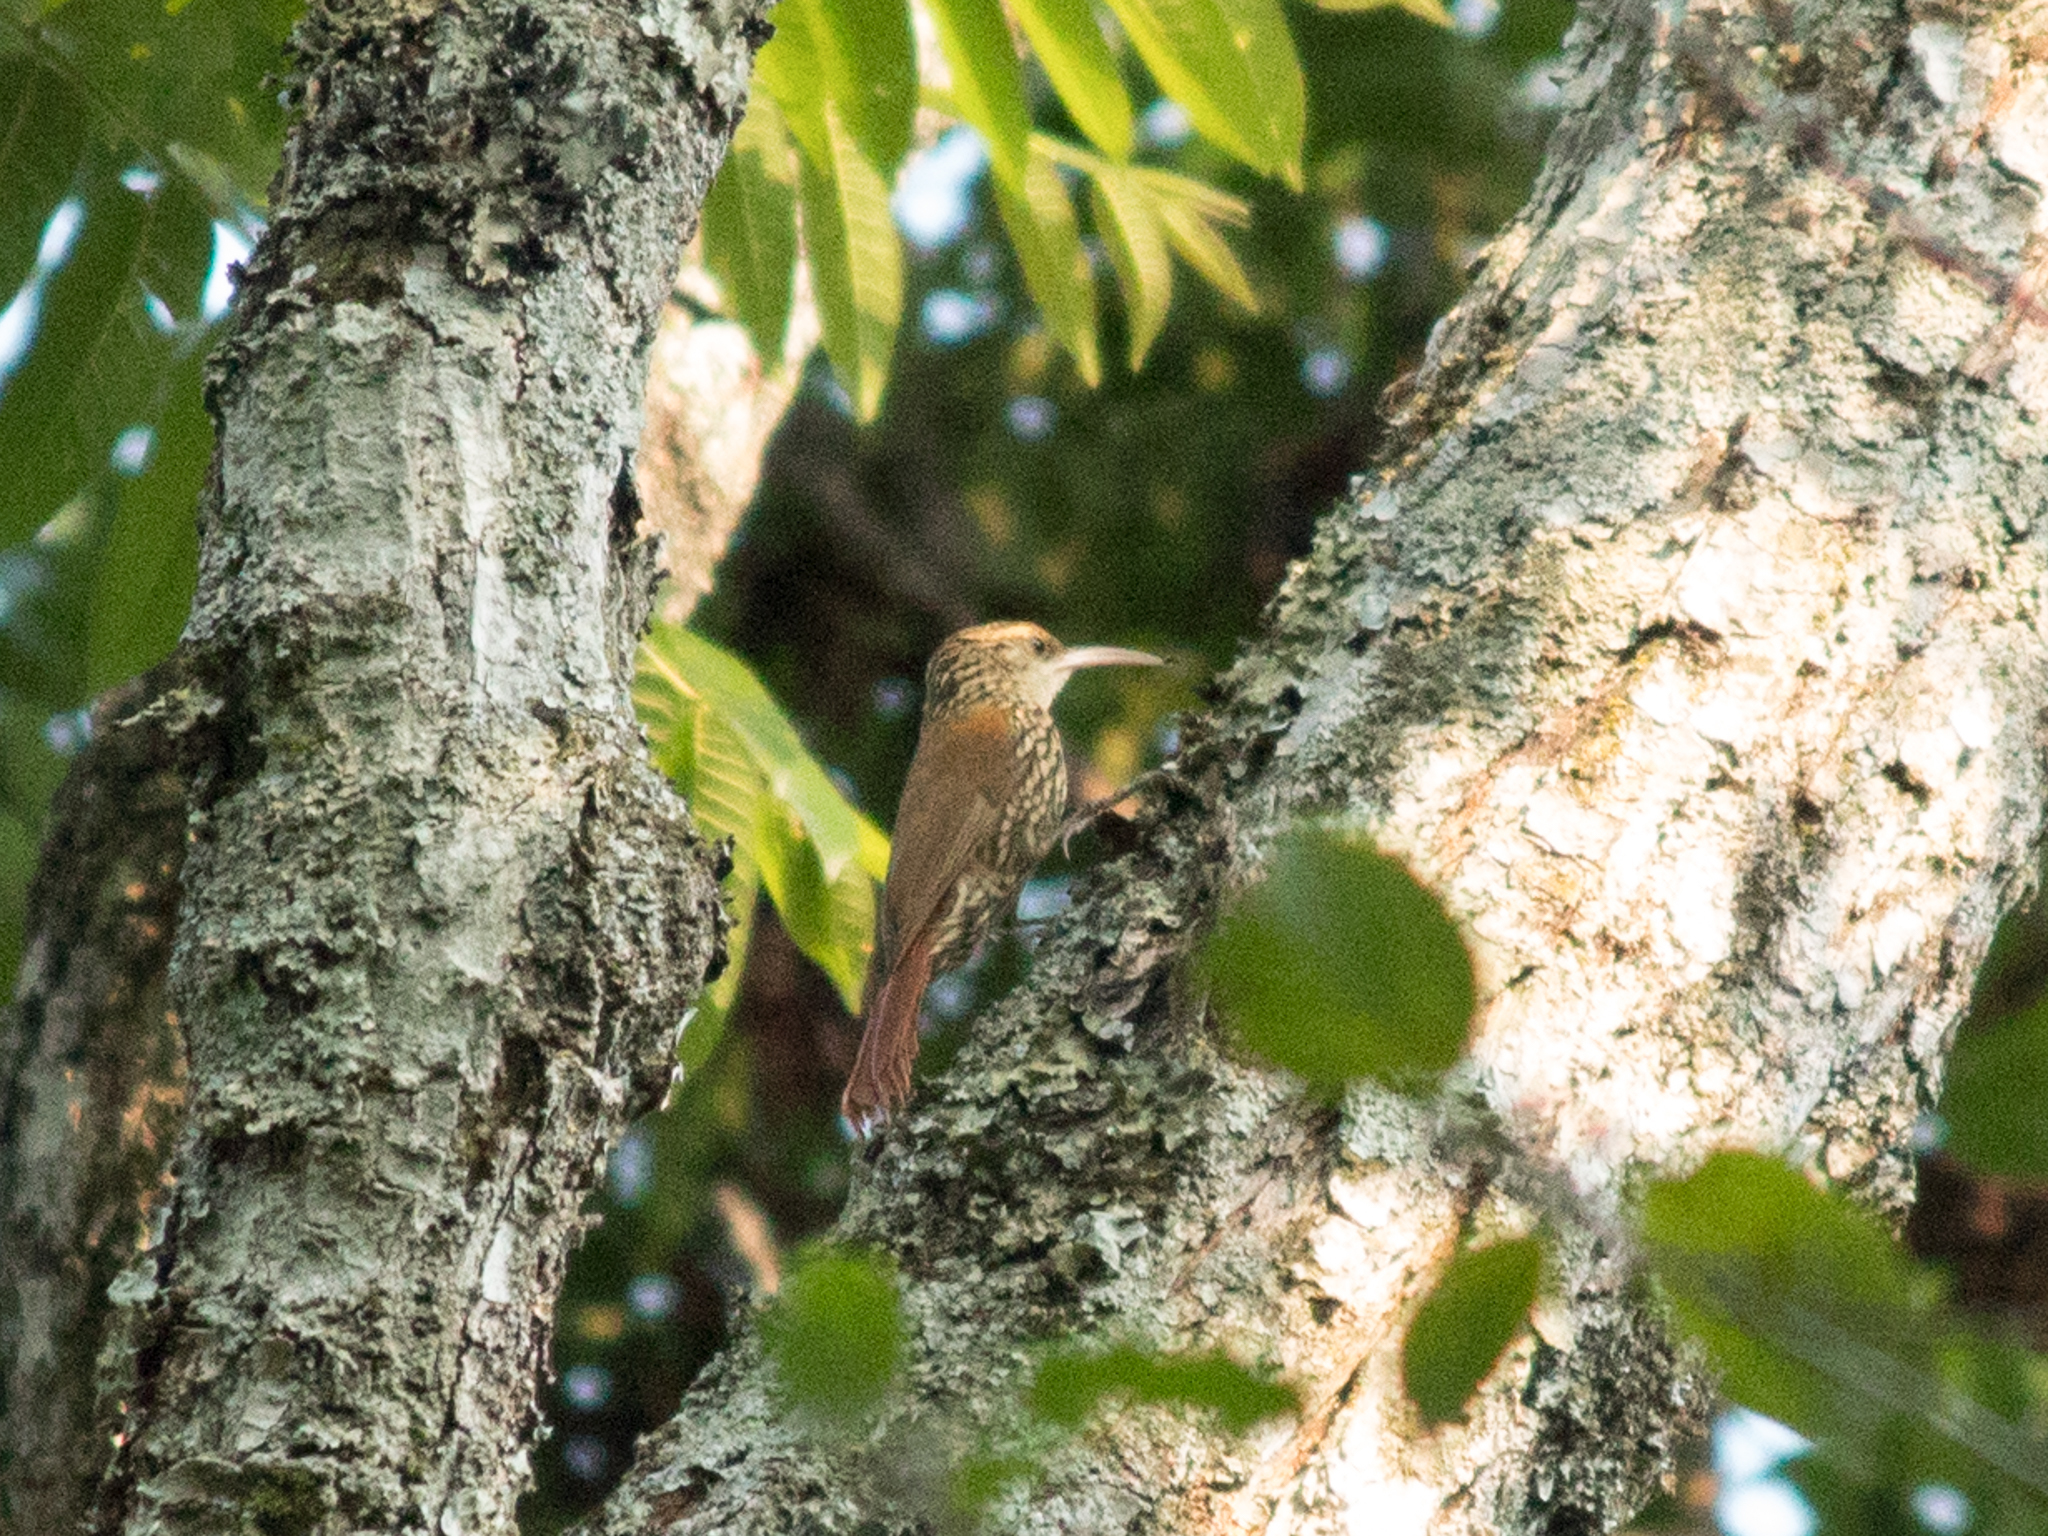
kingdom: Animalia
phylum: Chordata
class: Aves
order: Passeriformes
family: Furnariidae
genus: Lepidocolaptes
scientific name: Lepidocolaptes falcinellus
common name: Scalloped woodcreeper
